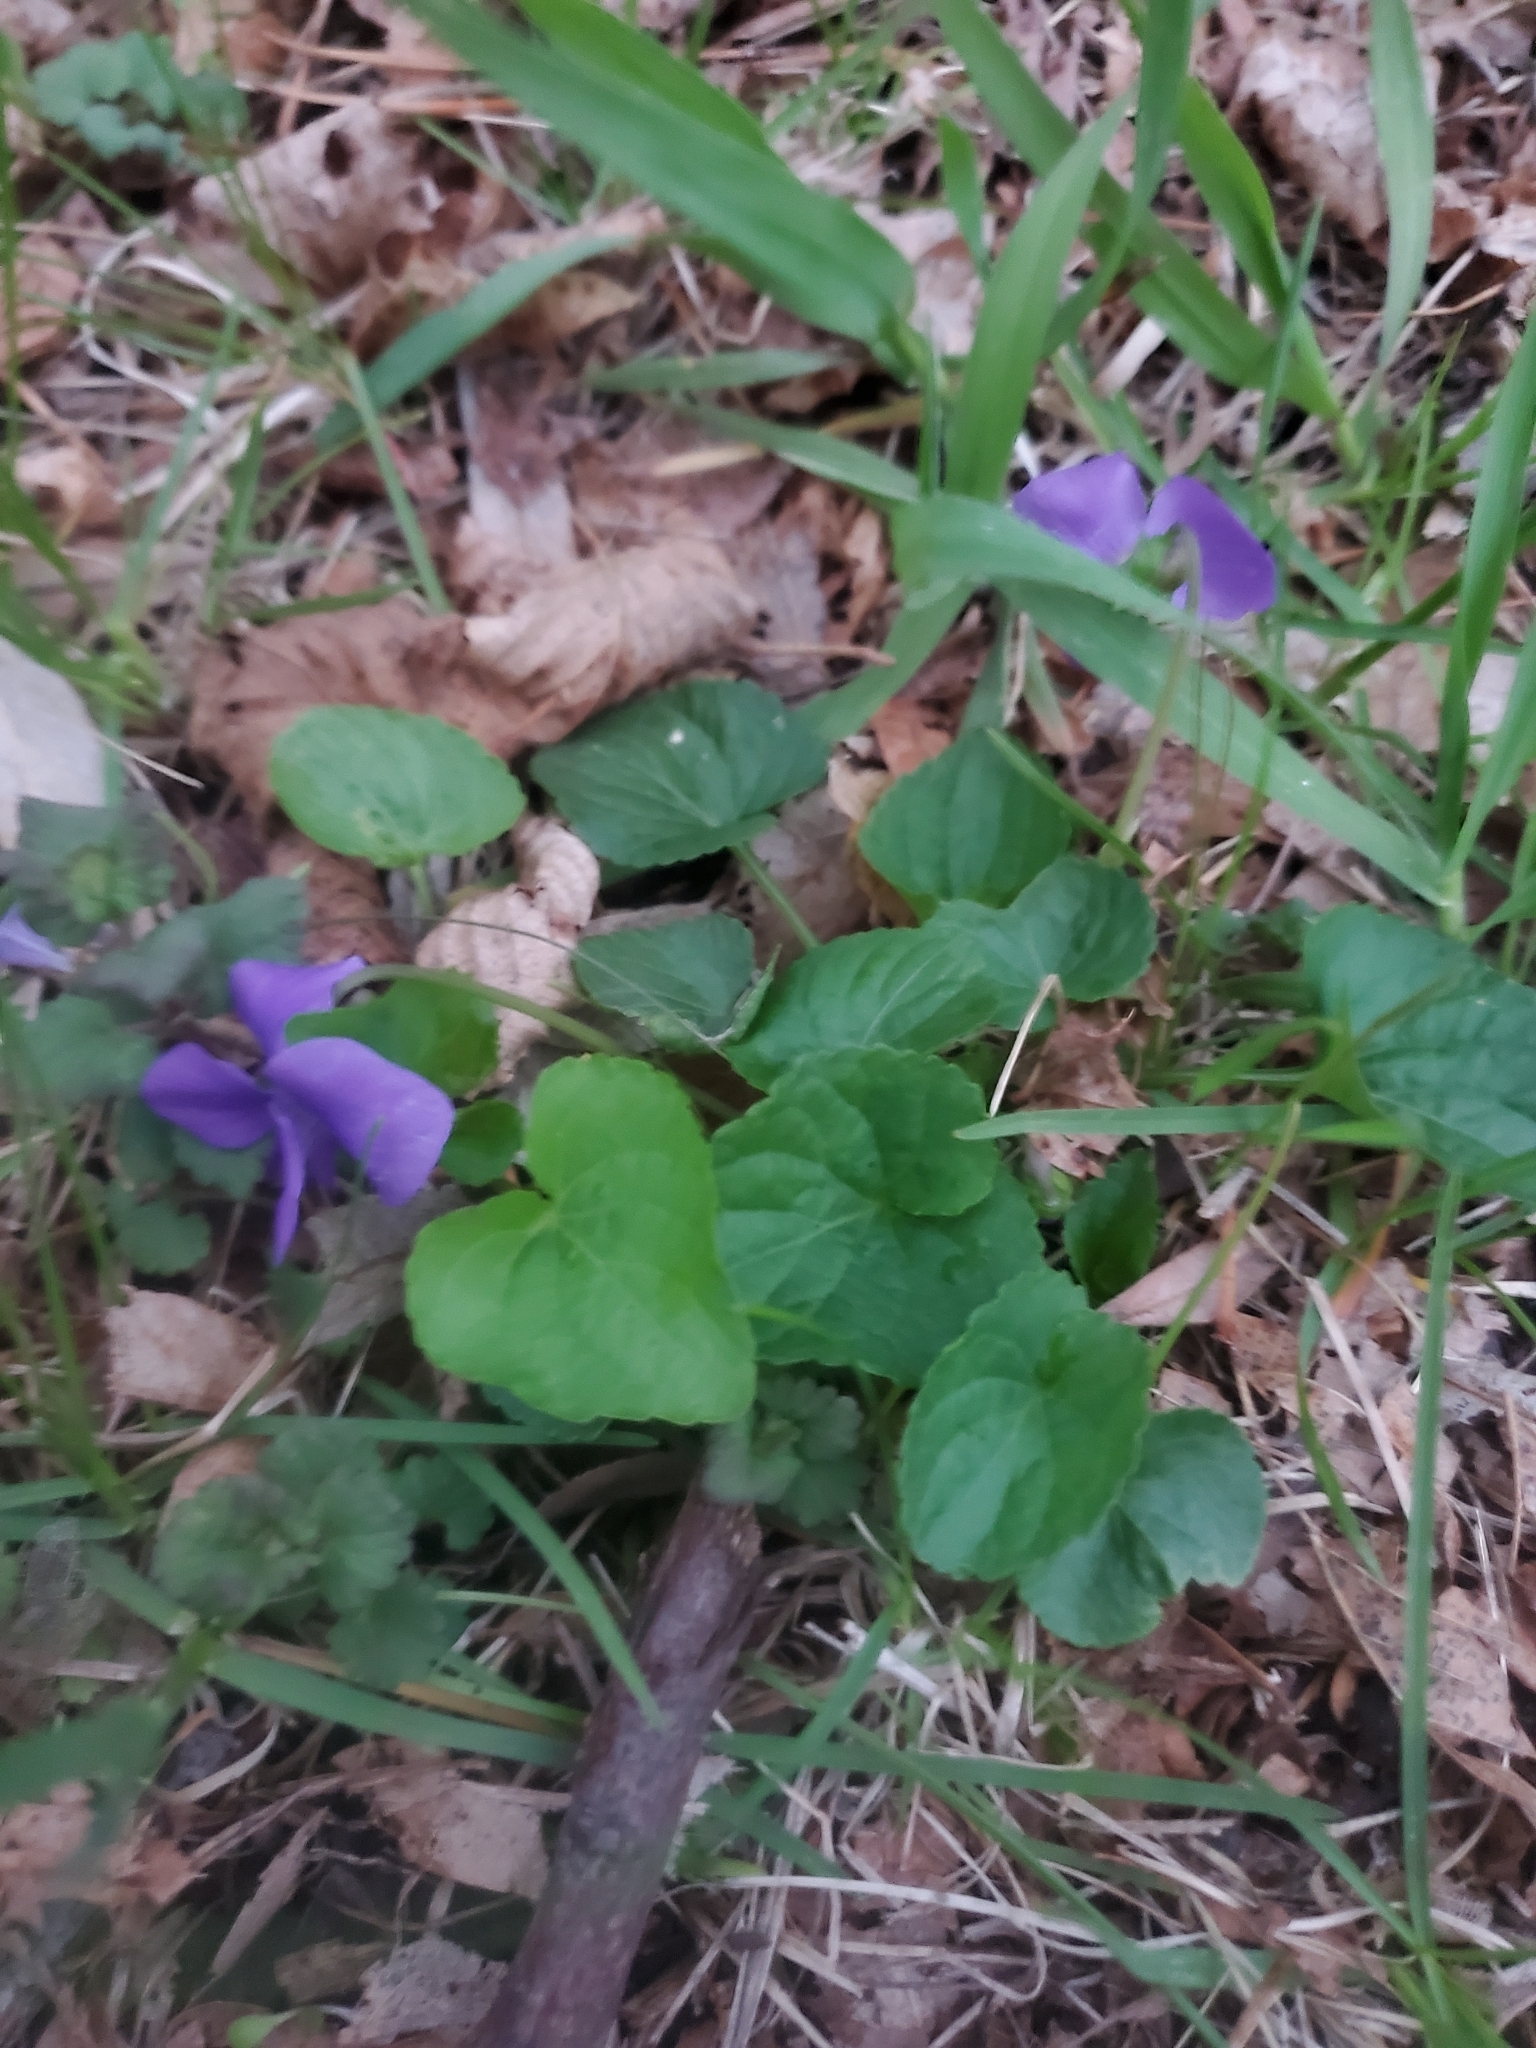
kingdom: Plantae
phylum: Tracheophyta
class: Magnoliopsida
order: Malpighiales
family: Violaceae
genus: Viola
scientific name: Viola sororia
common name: Dooryard violet
